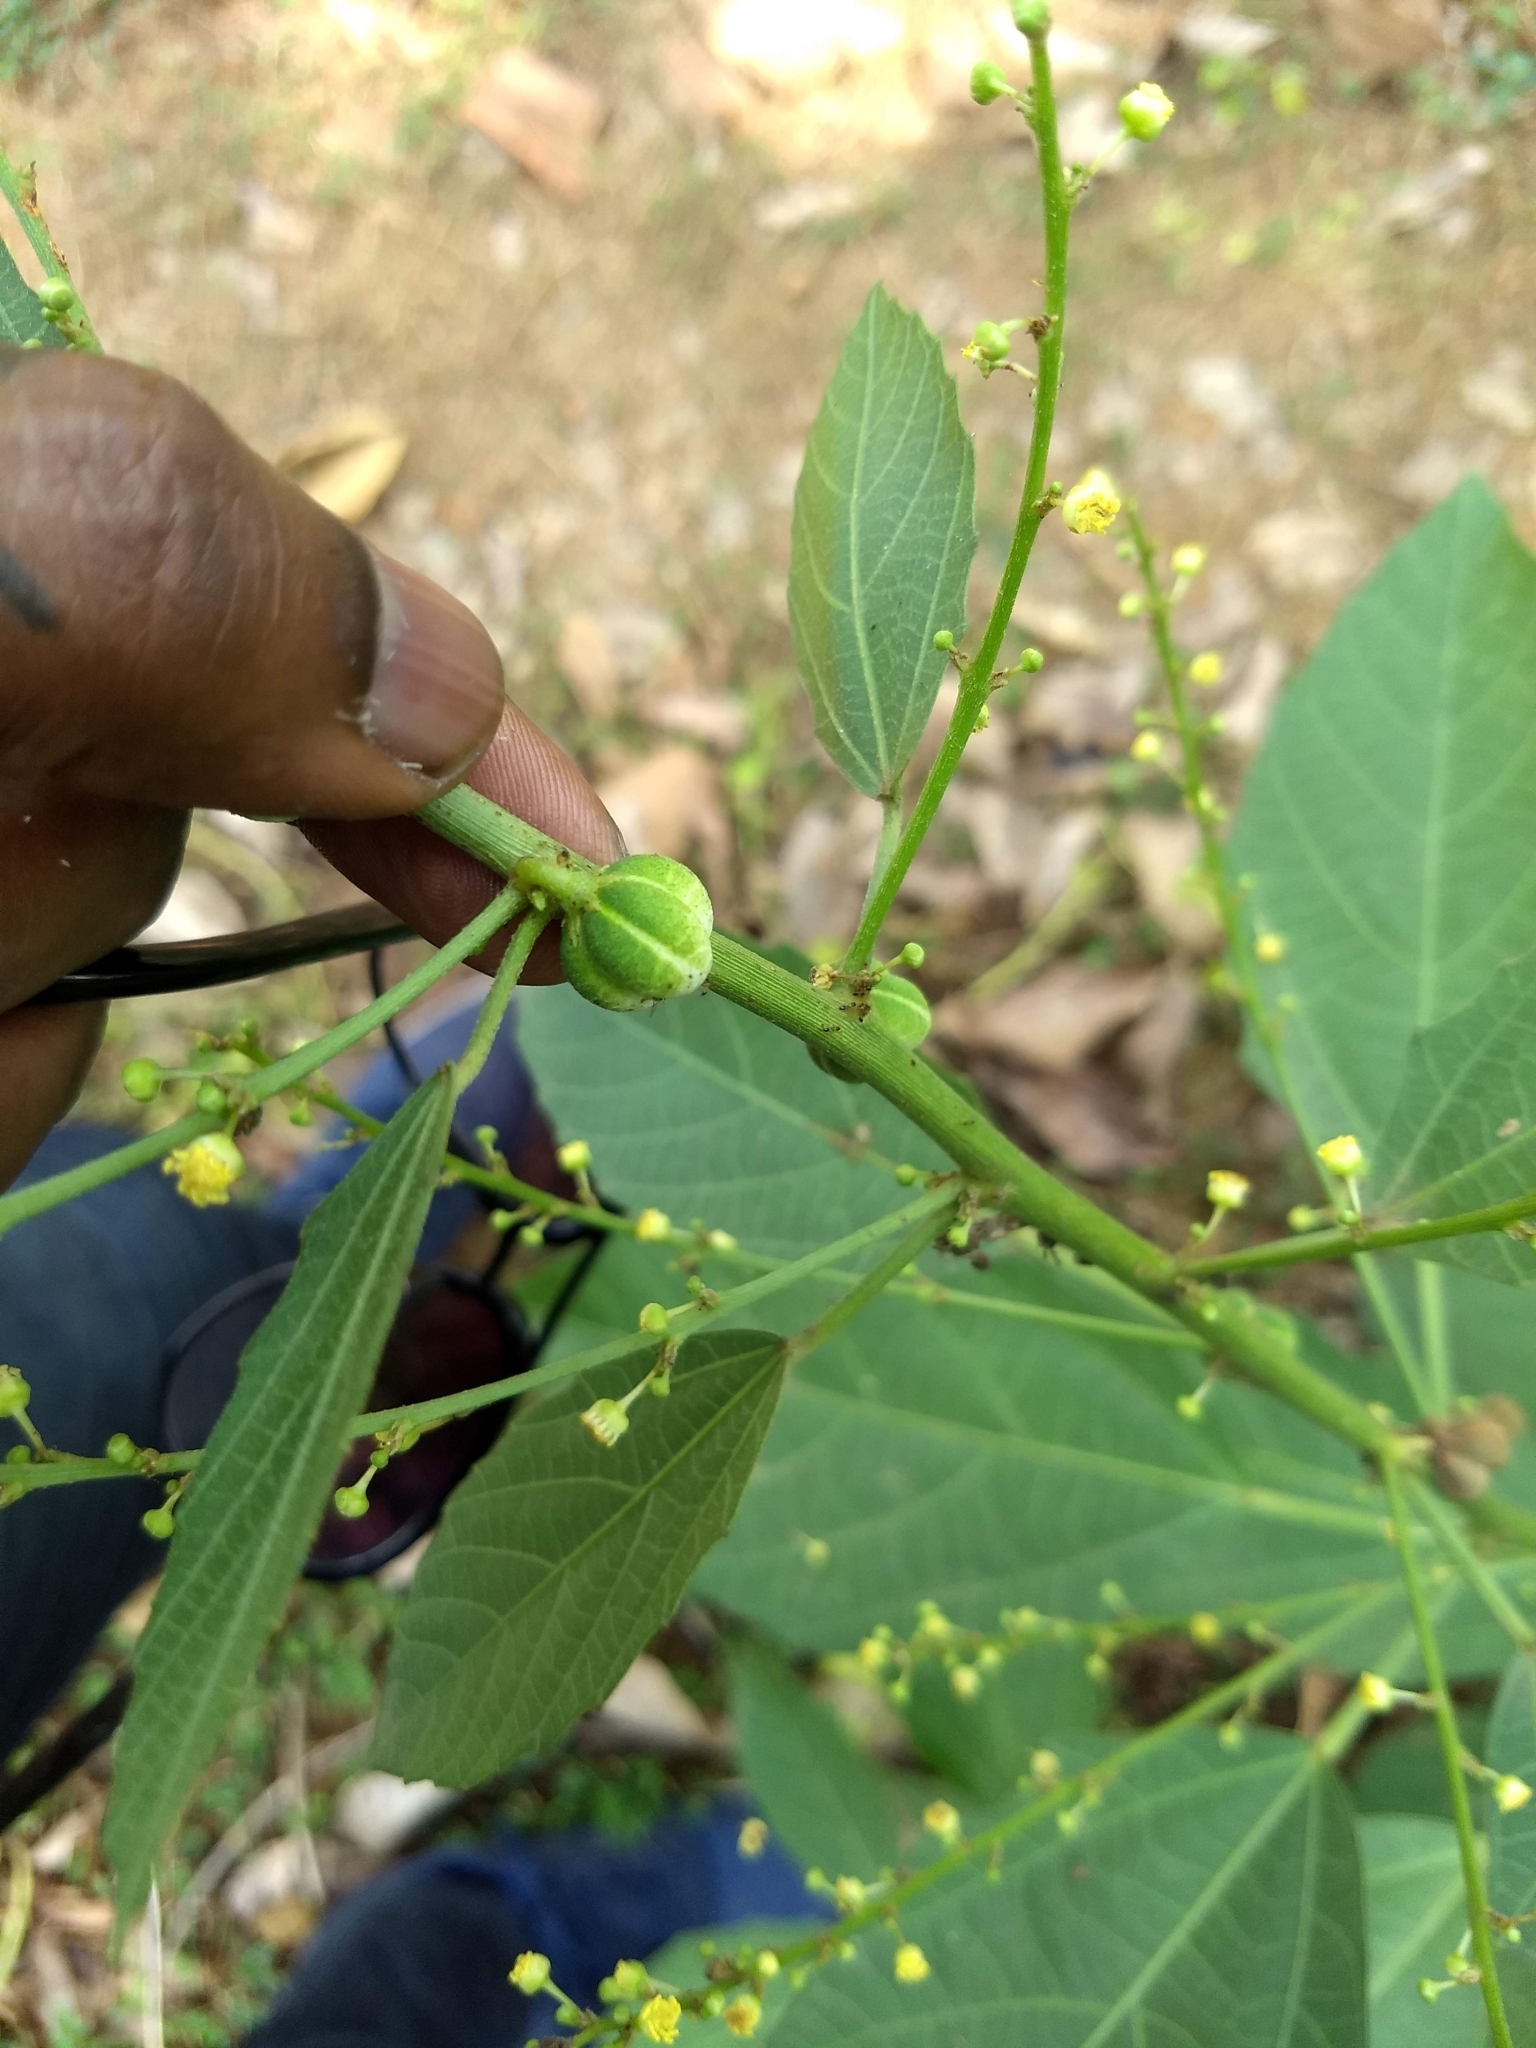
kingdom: Plantae
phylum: Tracheophyta
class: Magnoliopsida
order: Malpighiales
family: Euphorbiaceae
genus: Baliospermum
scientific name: Baliospermum solanifolium
